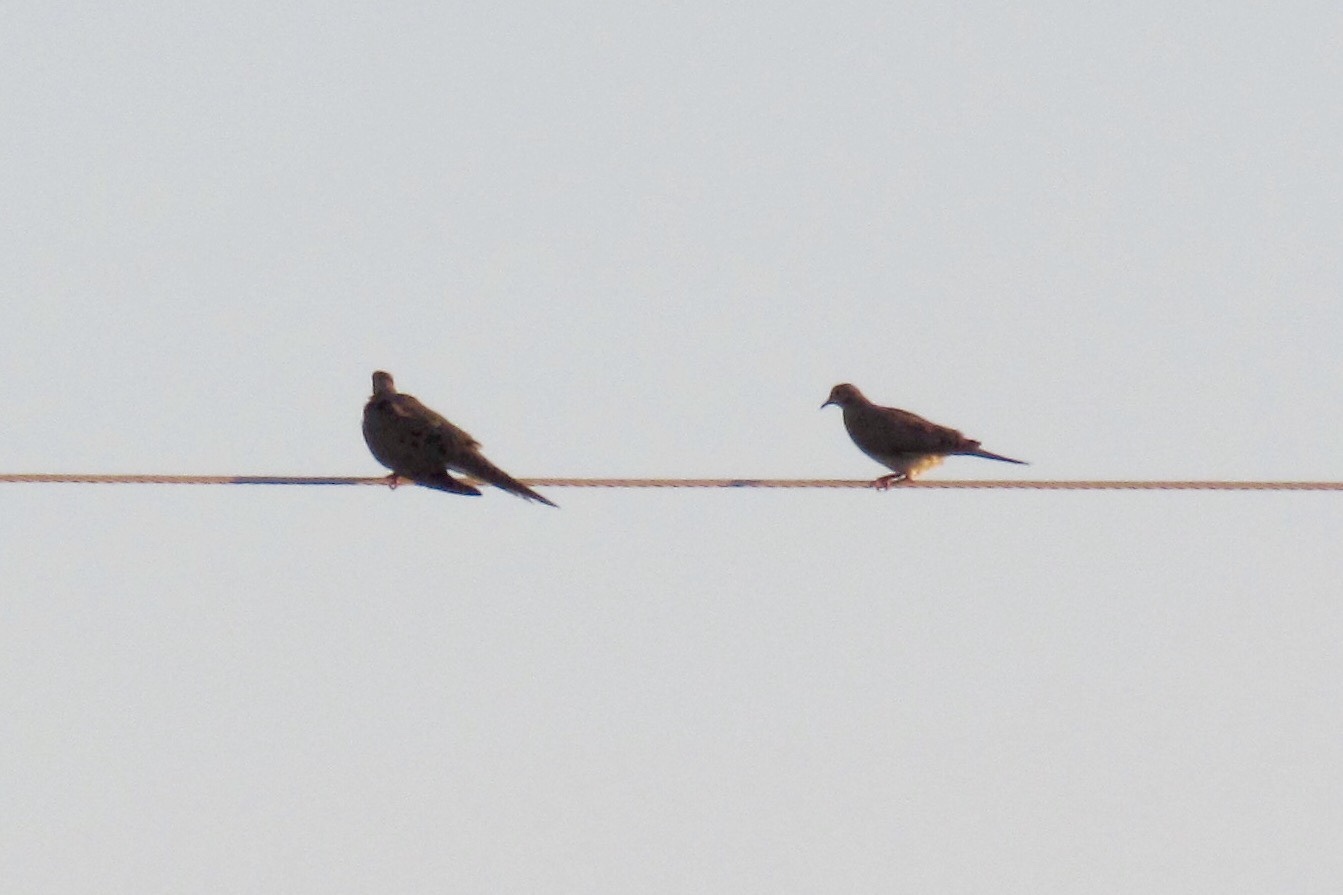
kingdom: Animalia
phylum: Chordata
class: Aves
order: Columbiformes
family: Columbidae
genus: Zenaida
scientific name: Zenaida macroura
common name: Mourning dove
